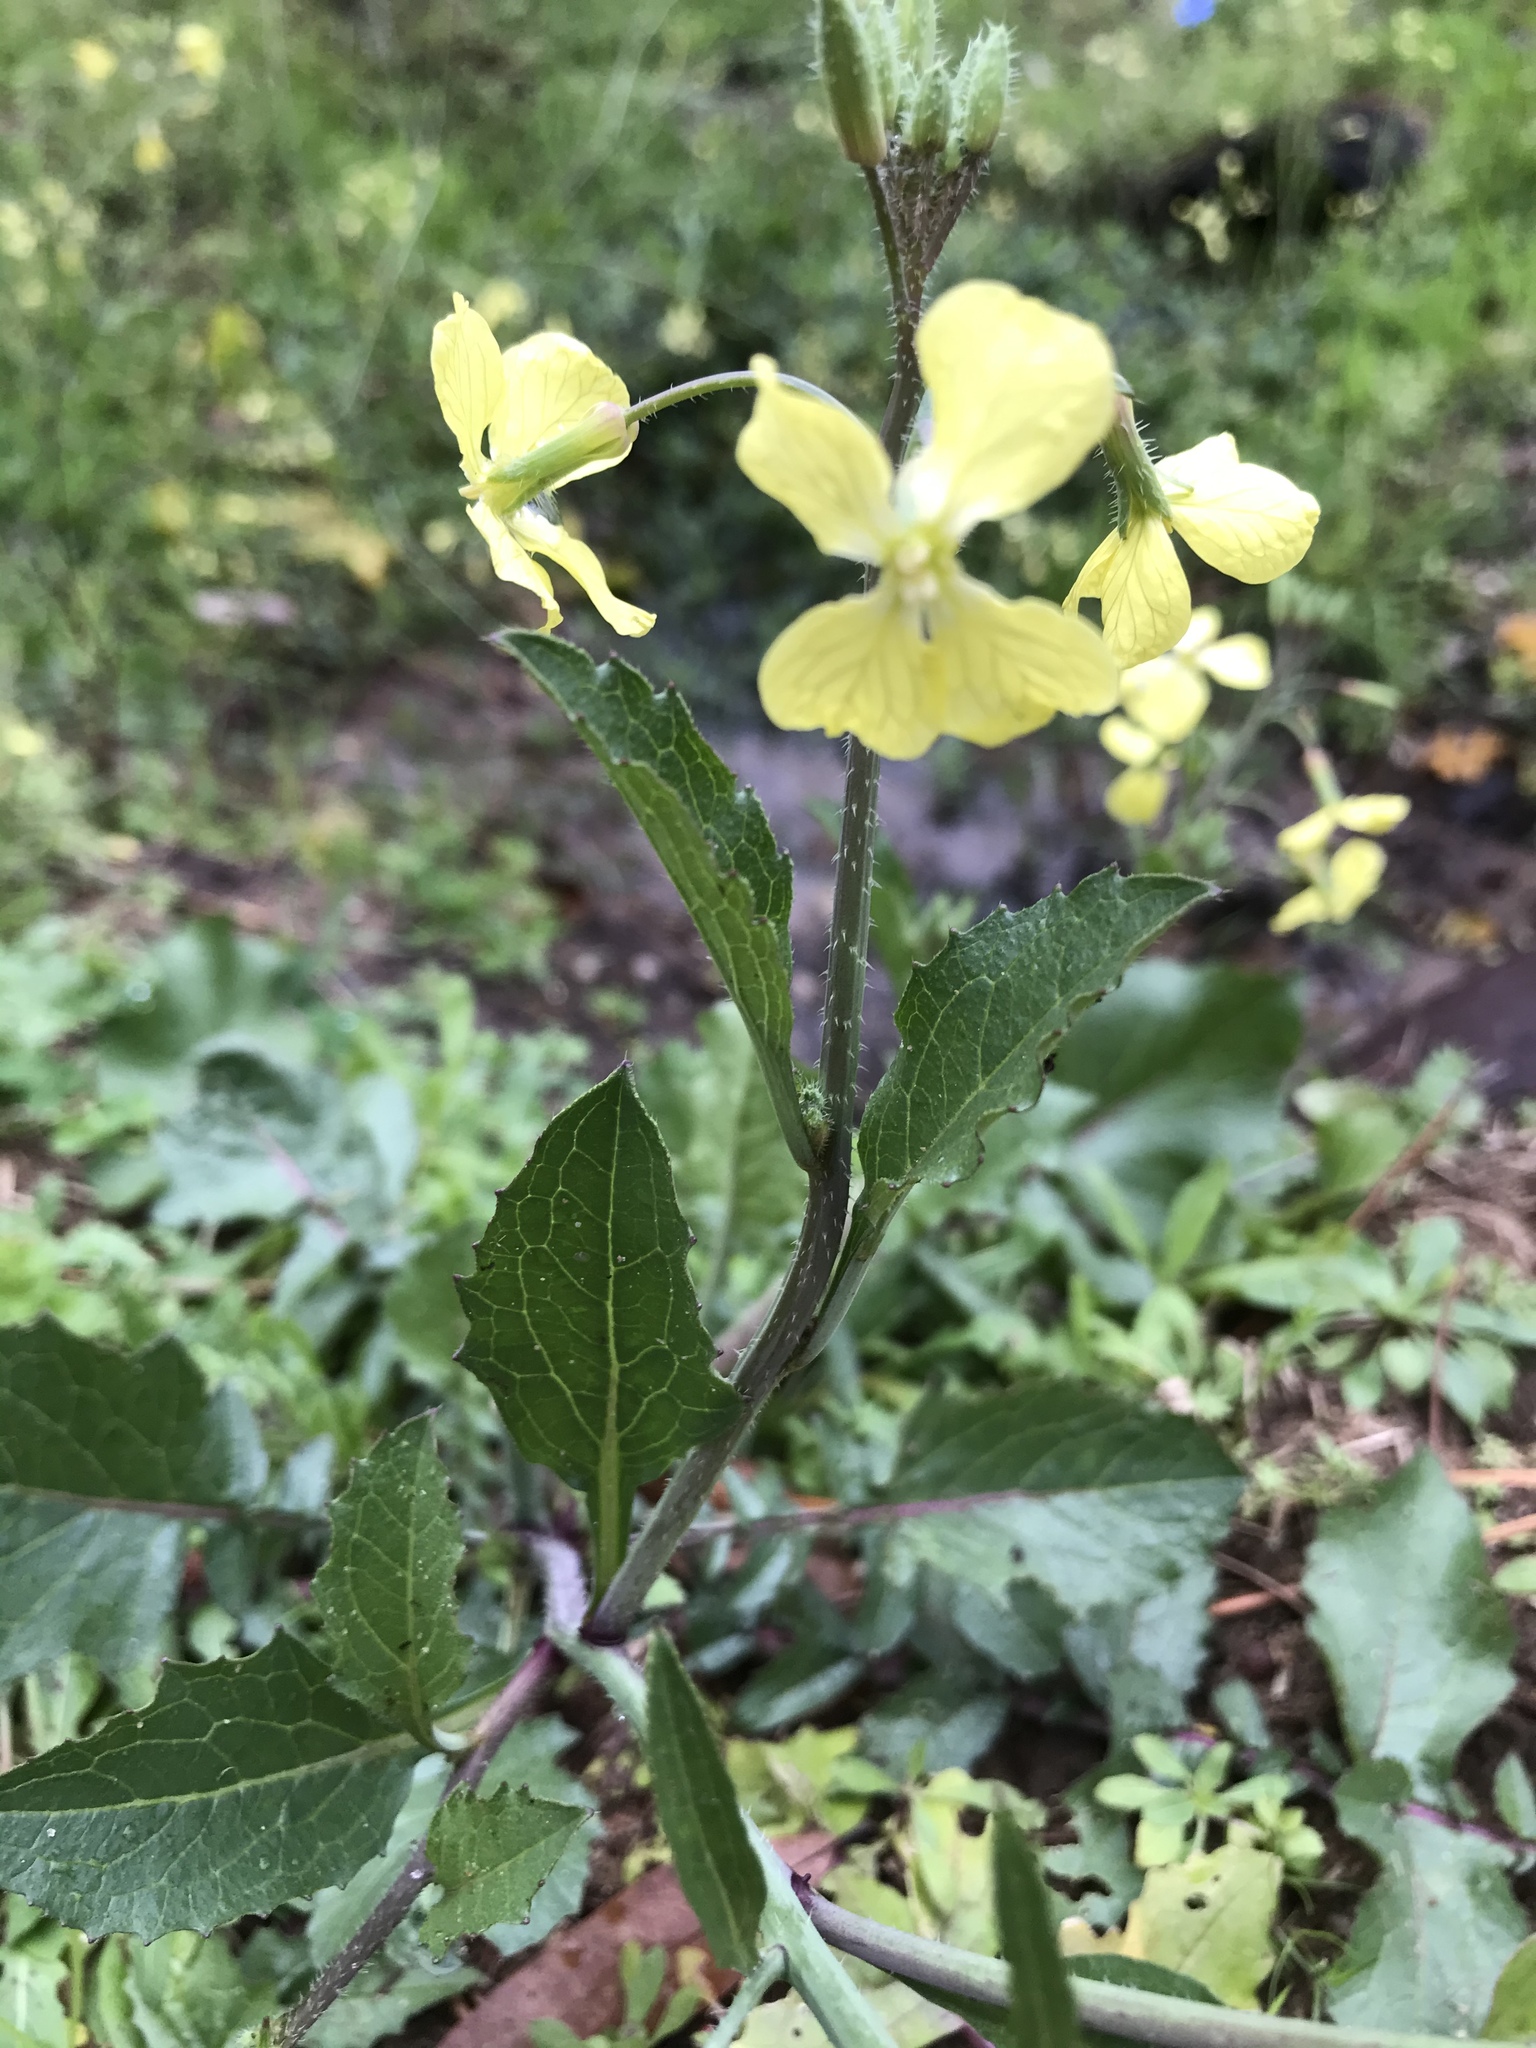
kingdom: Plantae
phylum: Tracheophyta
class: Magnoliopsida
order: Brassicales
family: Brassicaceae
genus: Raphanus
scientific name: Raphanus raphanistrum
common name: Wild radish
